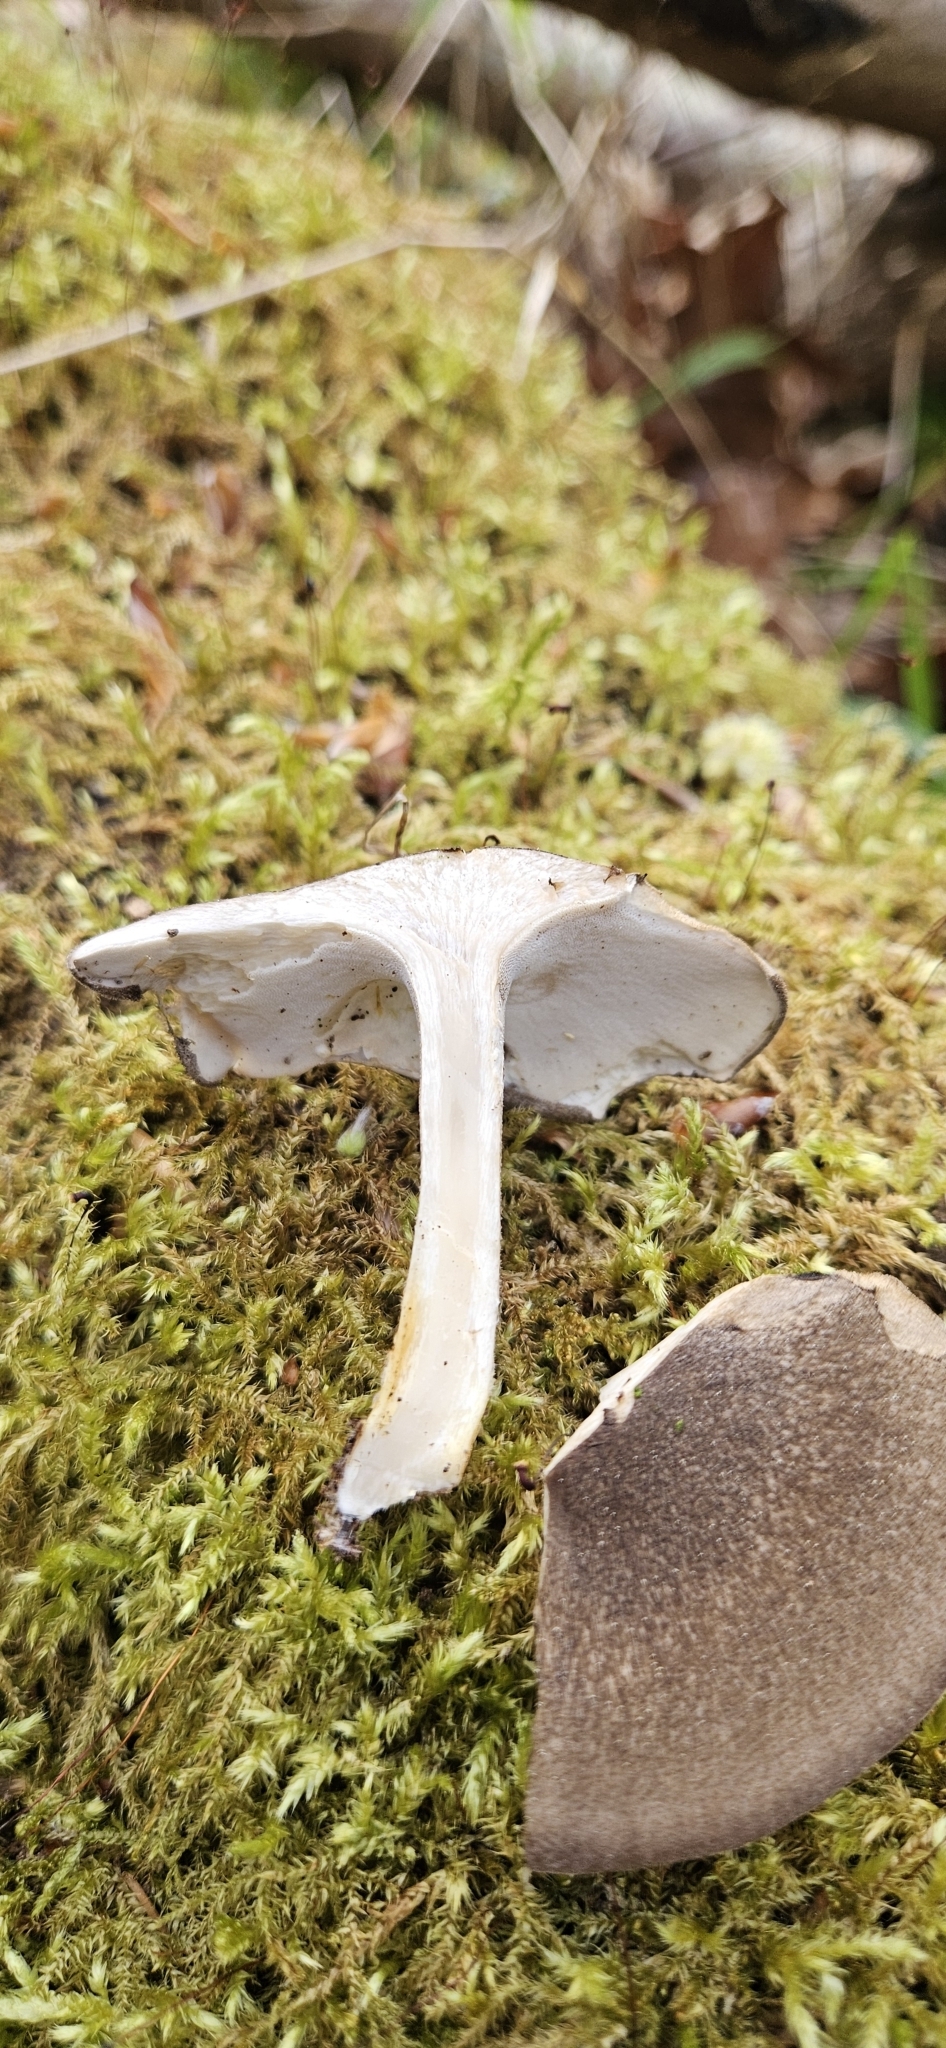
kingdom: Fungi
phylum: Basidiomycota
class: Agaricomycetes
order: Polyporales
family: Polyporaceae
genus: Lentinus
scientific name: Lentinus substrictus
